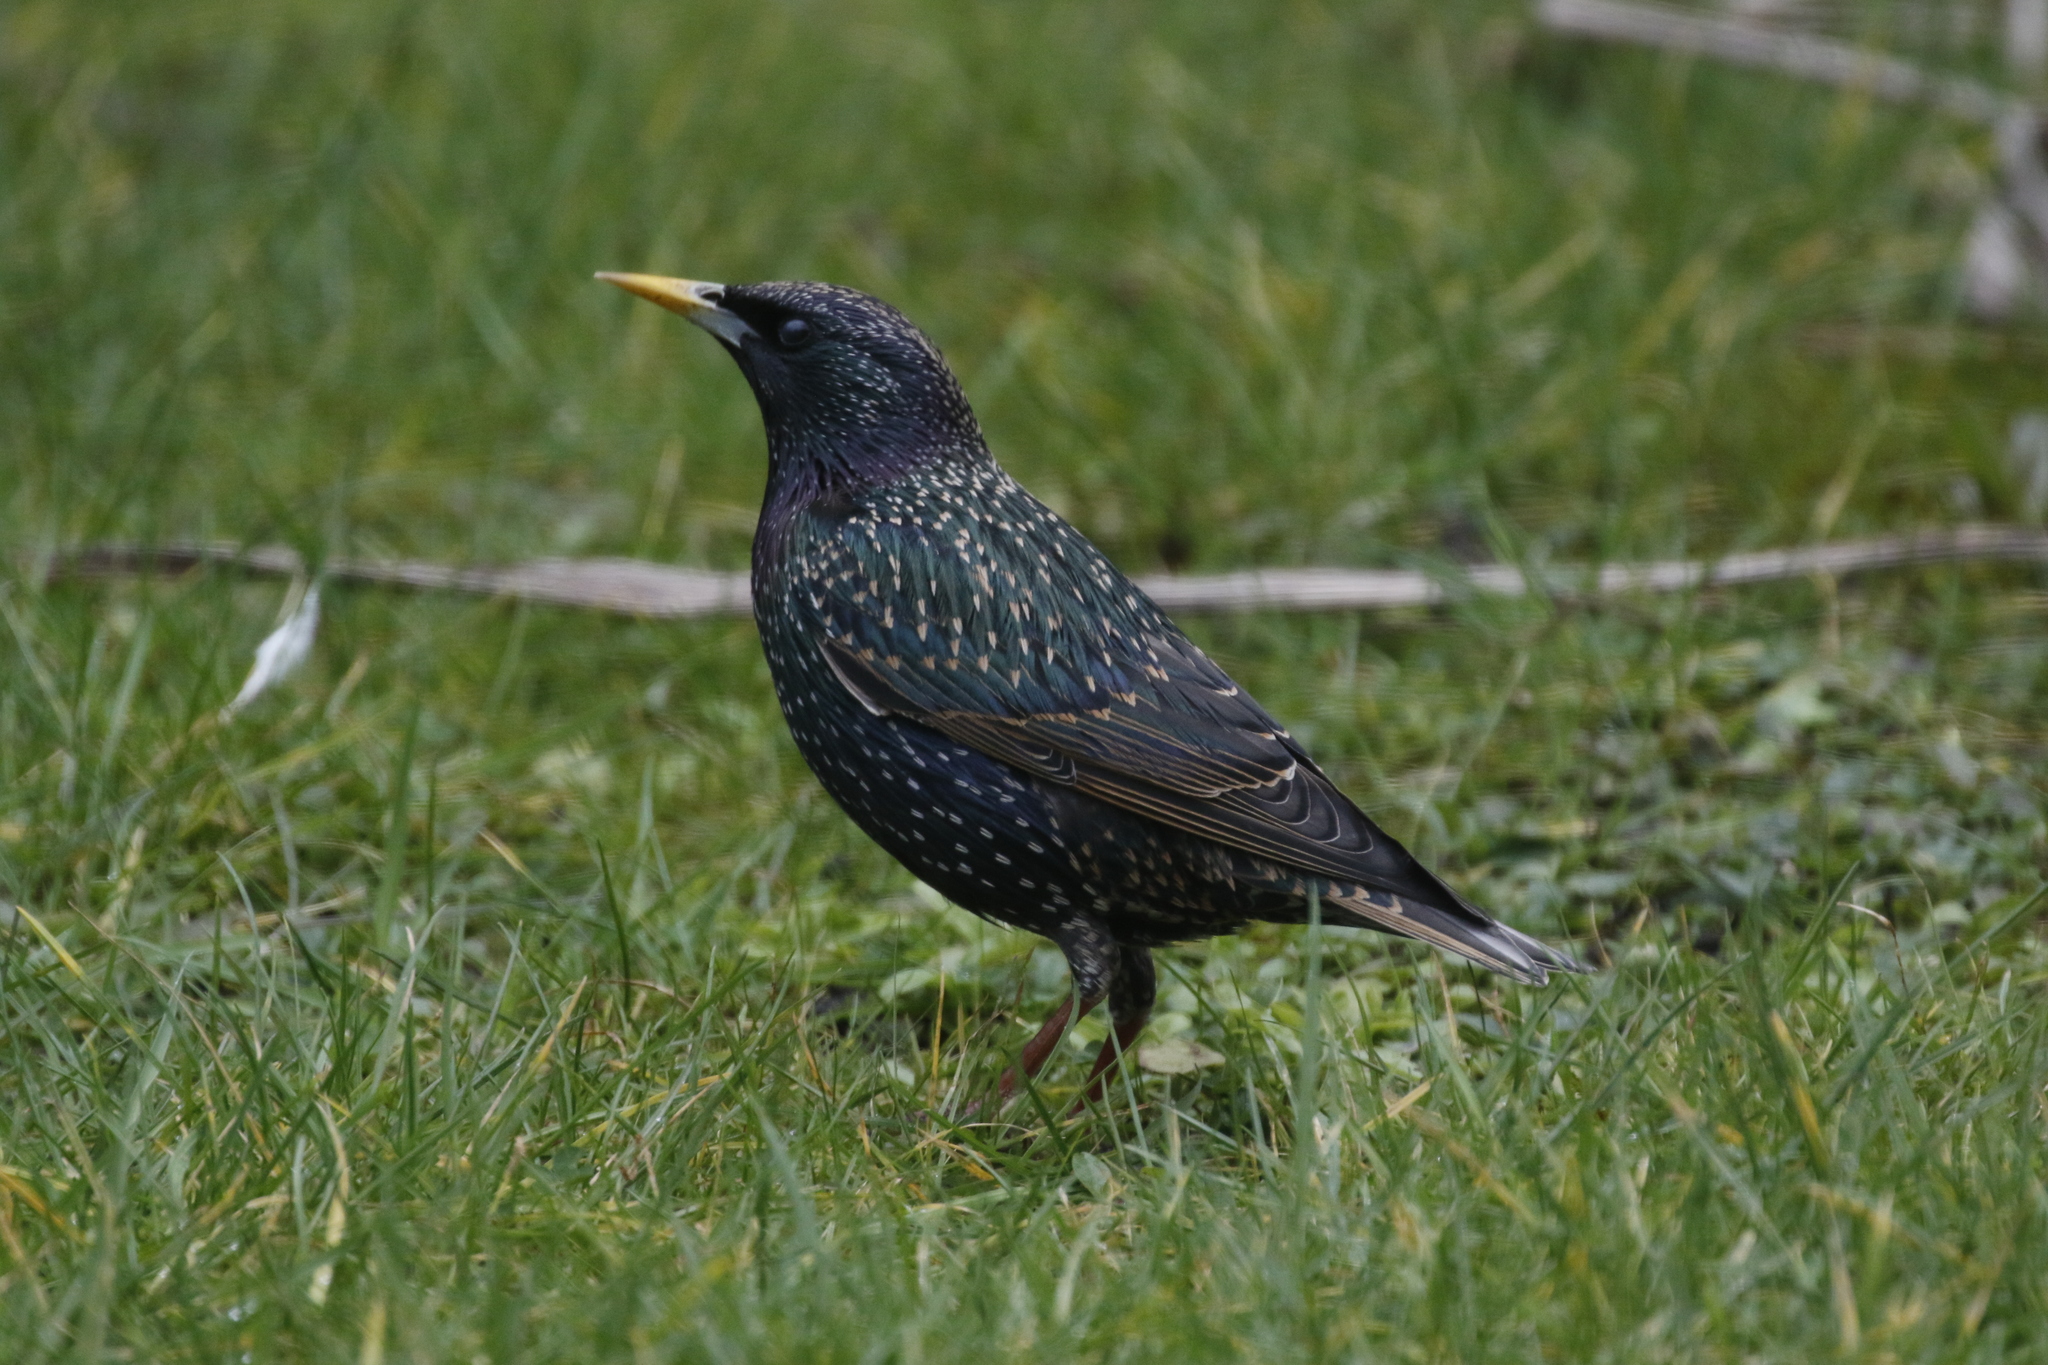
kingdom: Animalia
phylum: Chordata
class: Aves
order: Passeriformes
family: Sturnidae
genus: Sturnus
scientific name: Sturnus vulgaris
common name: Common starling
